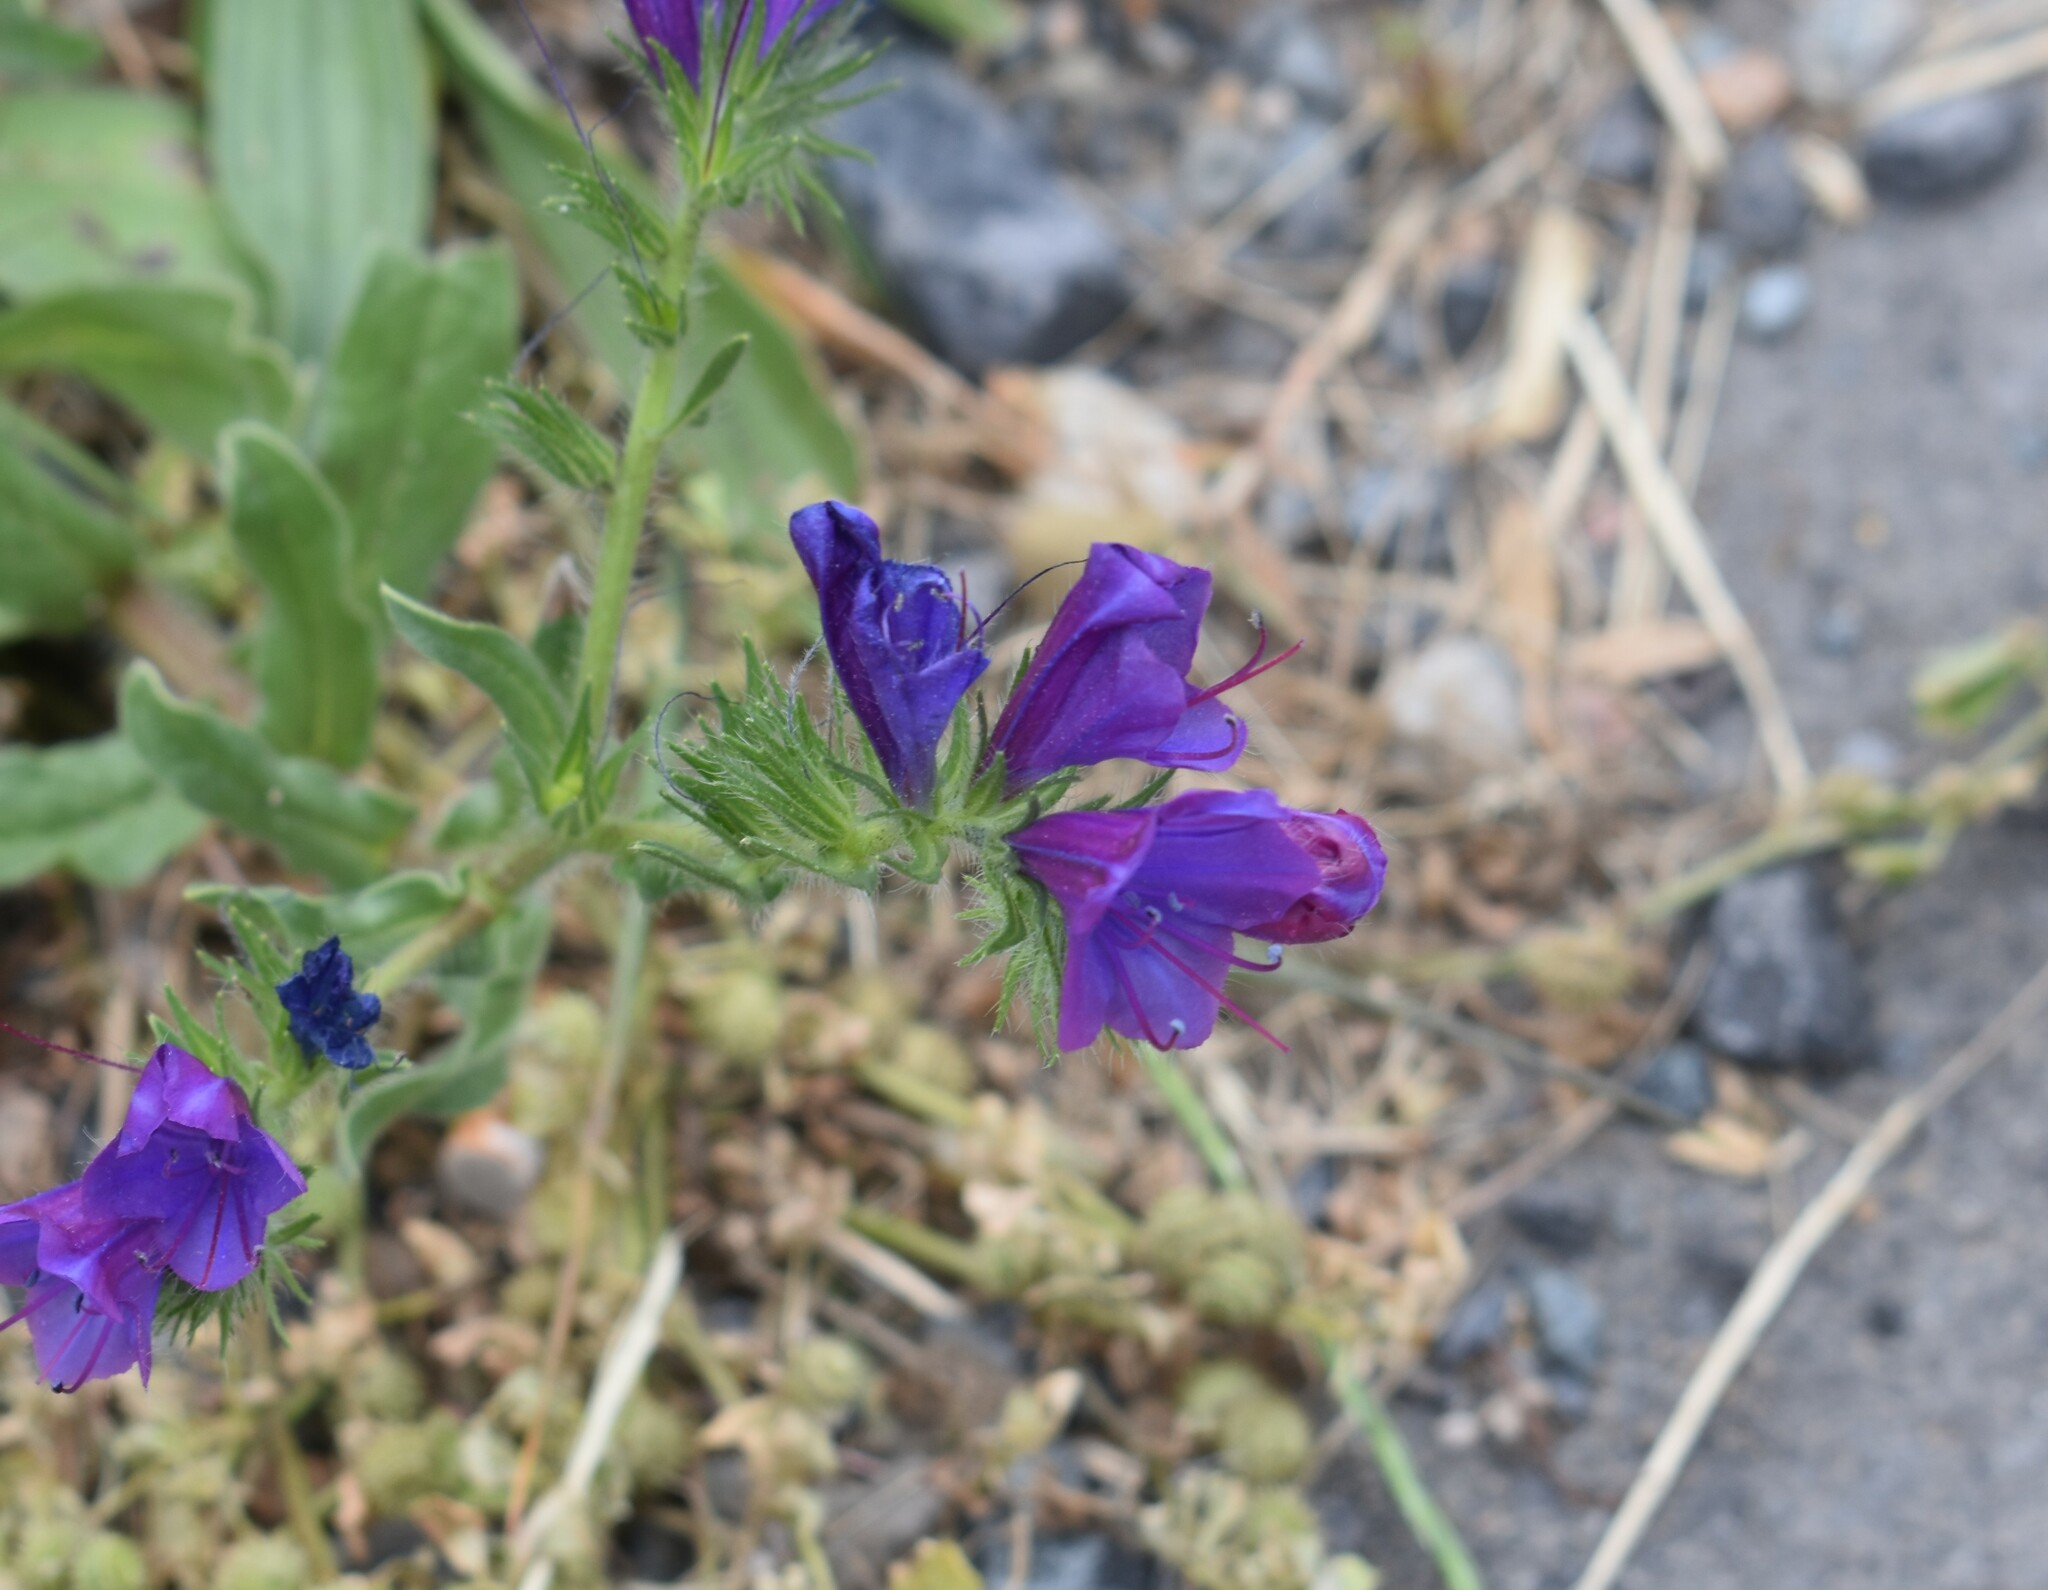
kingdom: Plantae
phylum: Tracheophyta
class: Magnoliopsida
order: Boraginales
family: Boraginaceae
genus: Echium
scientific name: Echium plantagineum
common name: Purple viper's-bugloss
